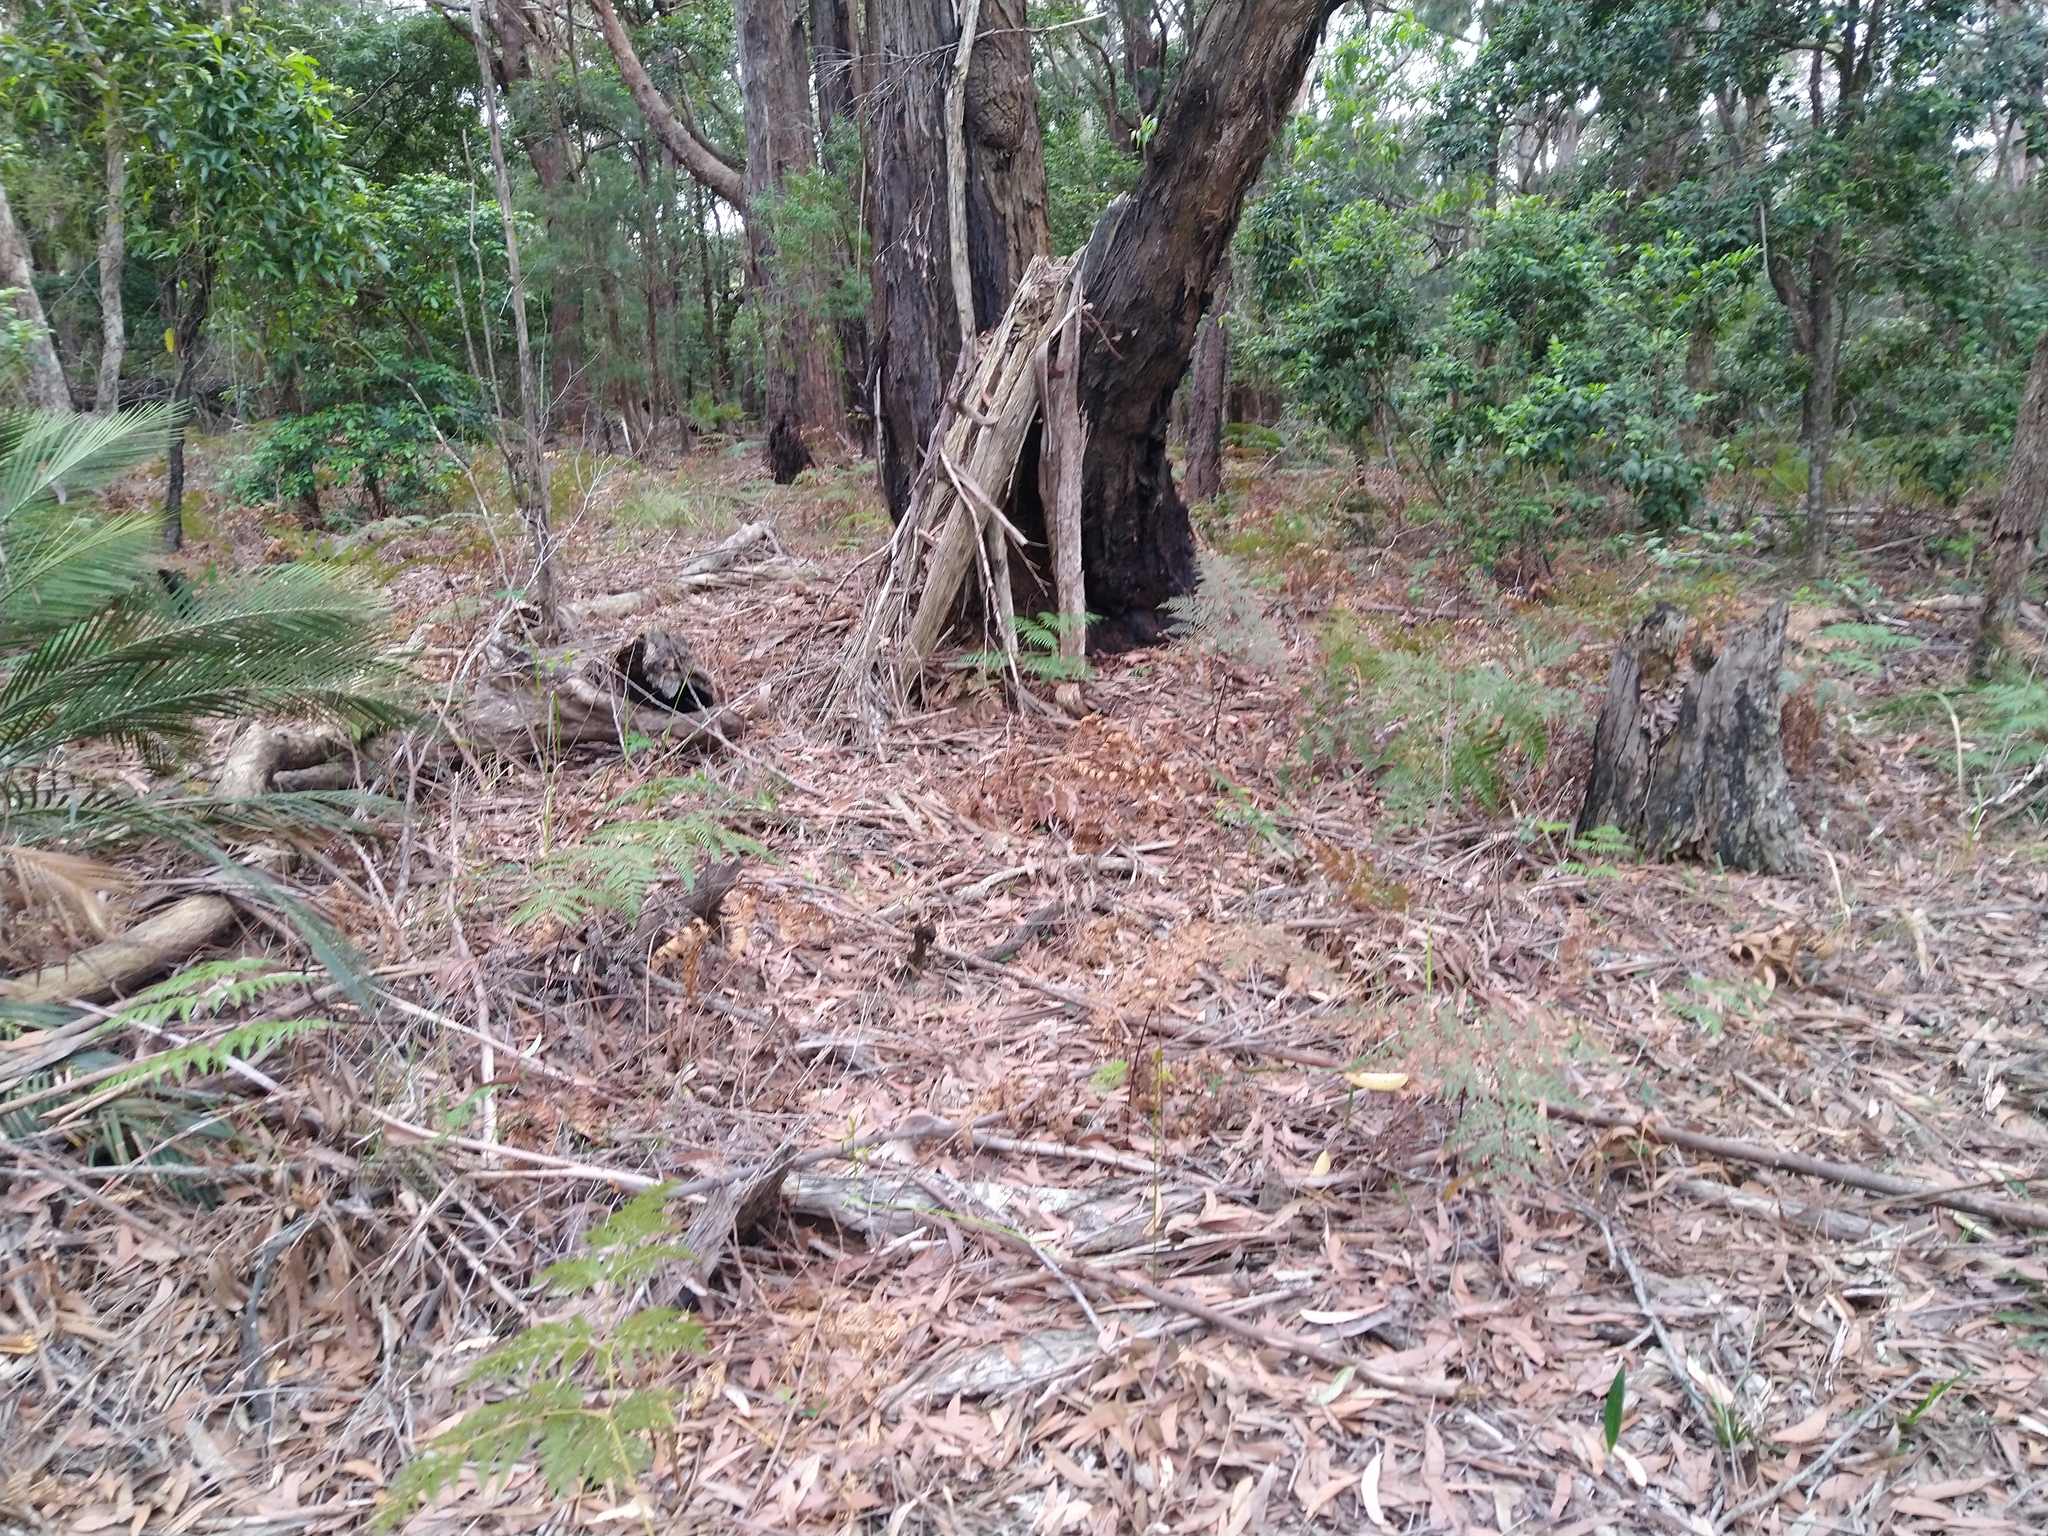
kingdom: Plantae
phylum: Tracheophyta
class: Liliopsida
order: Asparagales
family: Orchidaceae
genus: Cryptostylis
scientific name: Cryptostylis subulata
